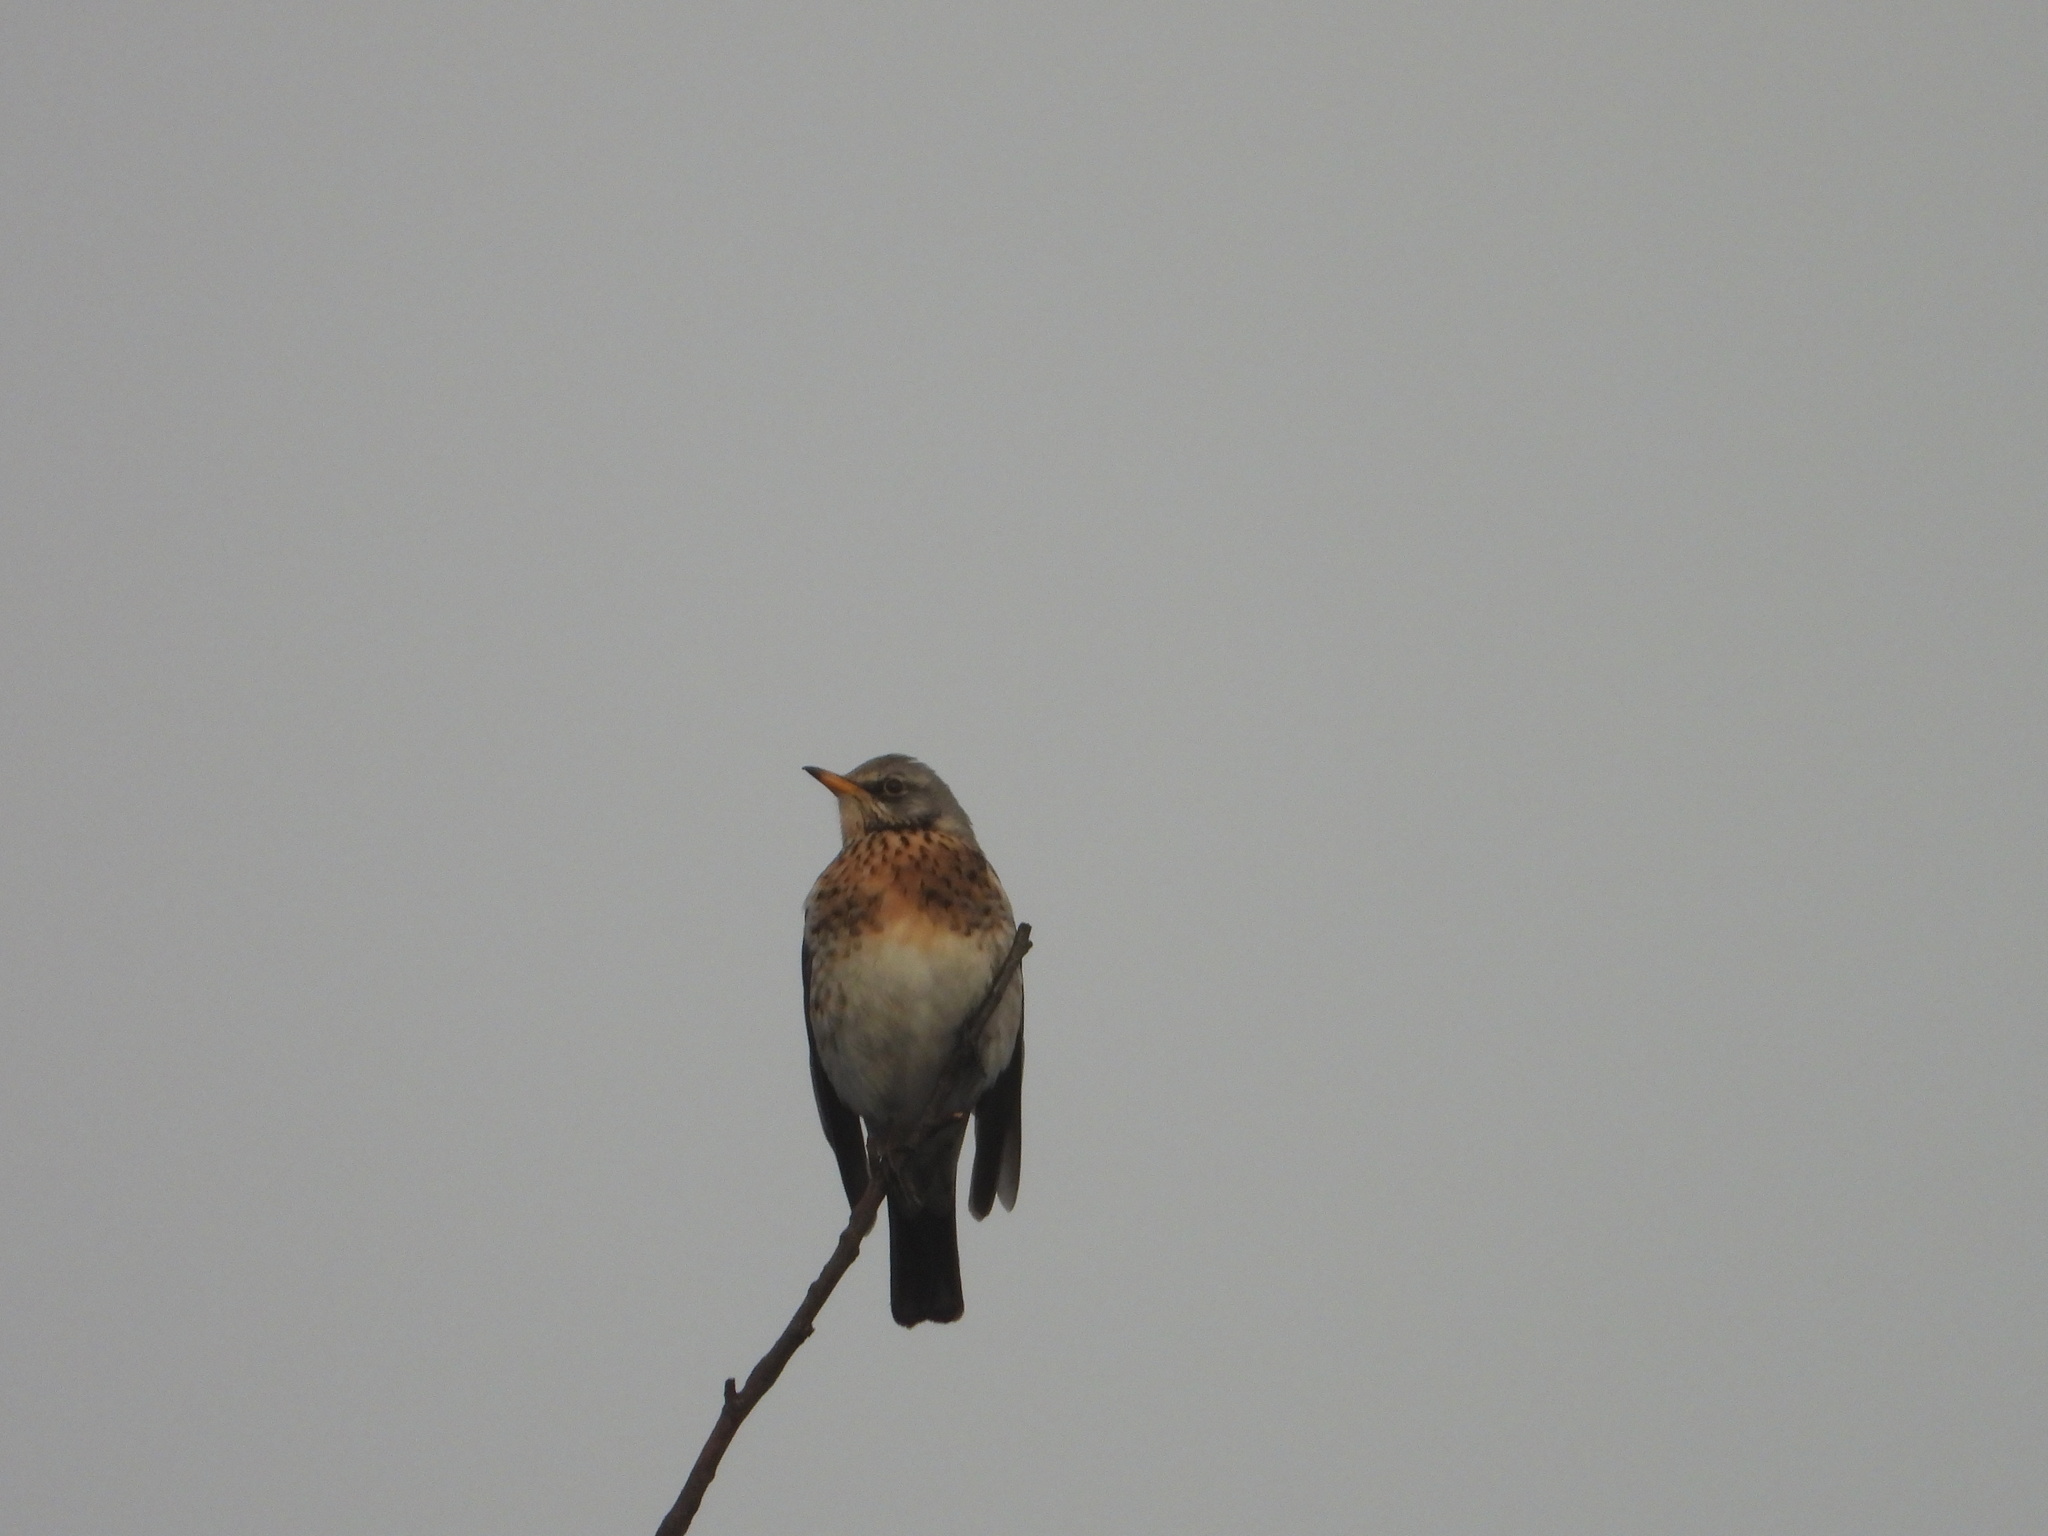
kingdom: Animalia
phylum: Chordata
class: Aves
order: Passeriformes
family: Turdidae
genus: Turdus
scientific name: Turdus pilaris
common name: Fieldfare
